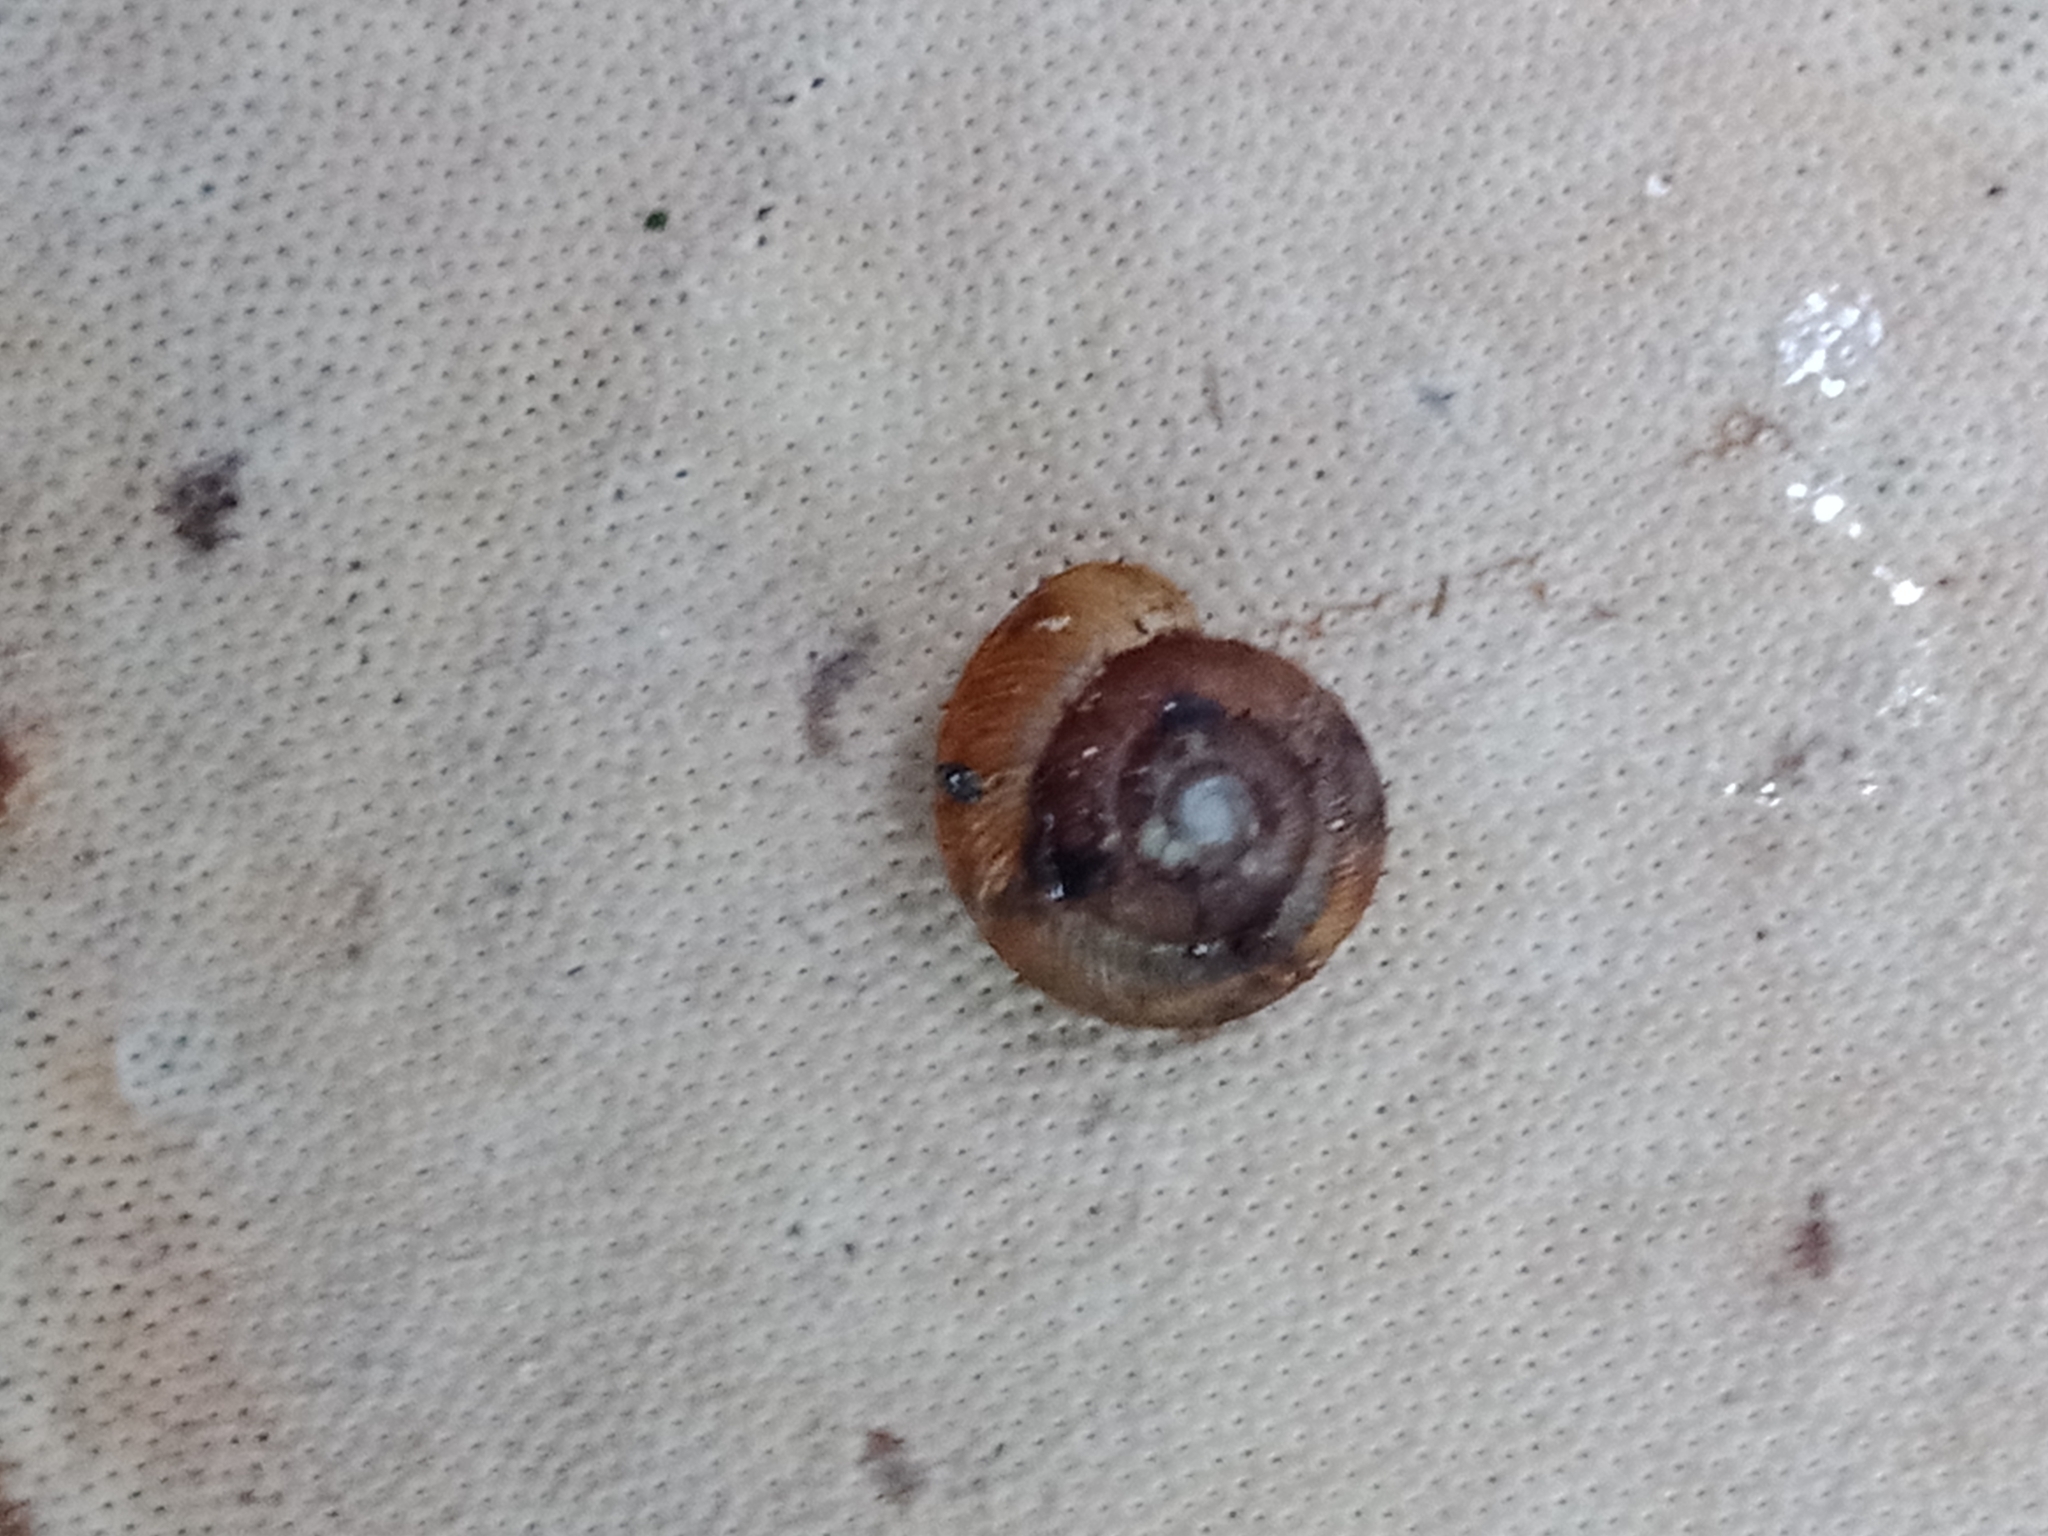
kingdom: Animalia
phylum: Mollusca
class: Gastropoda
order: Stylommatophora
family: Discidae
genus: Discus
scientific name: Discus ruderatus
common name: Brown disc snail
